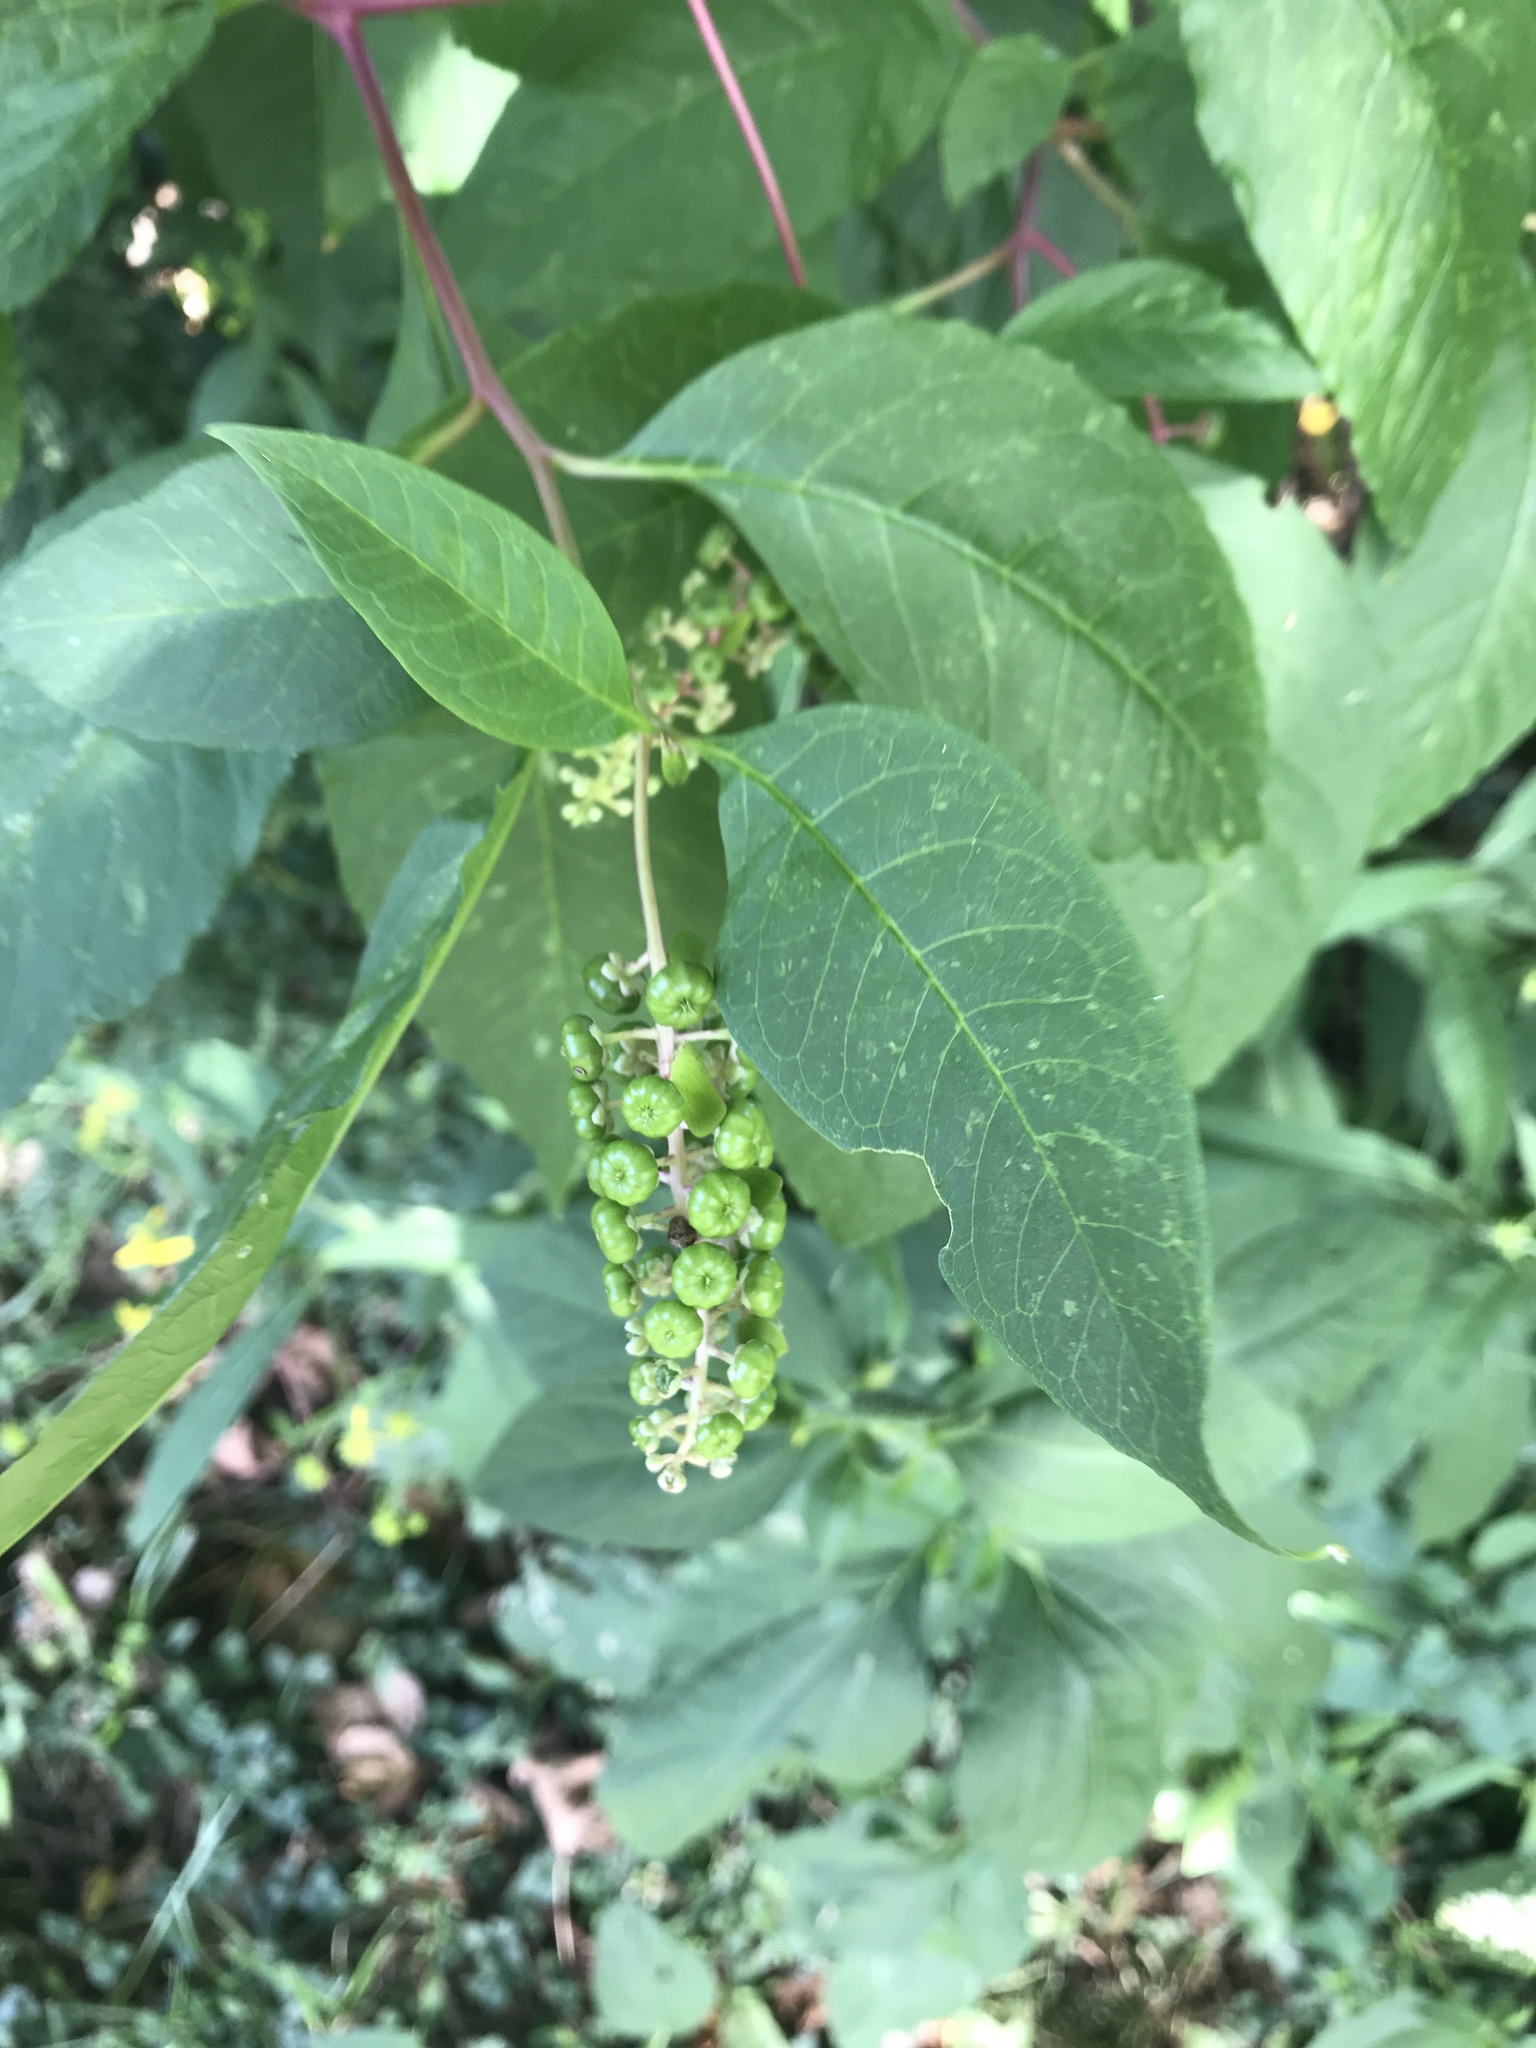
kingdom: Plantae
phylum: Tracheophyta
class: Magnoliopsida
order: Caryophyllales
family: Phytolaccaceae
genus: Phytolacca
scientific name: Phytolacca americana
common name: American pokeweed
